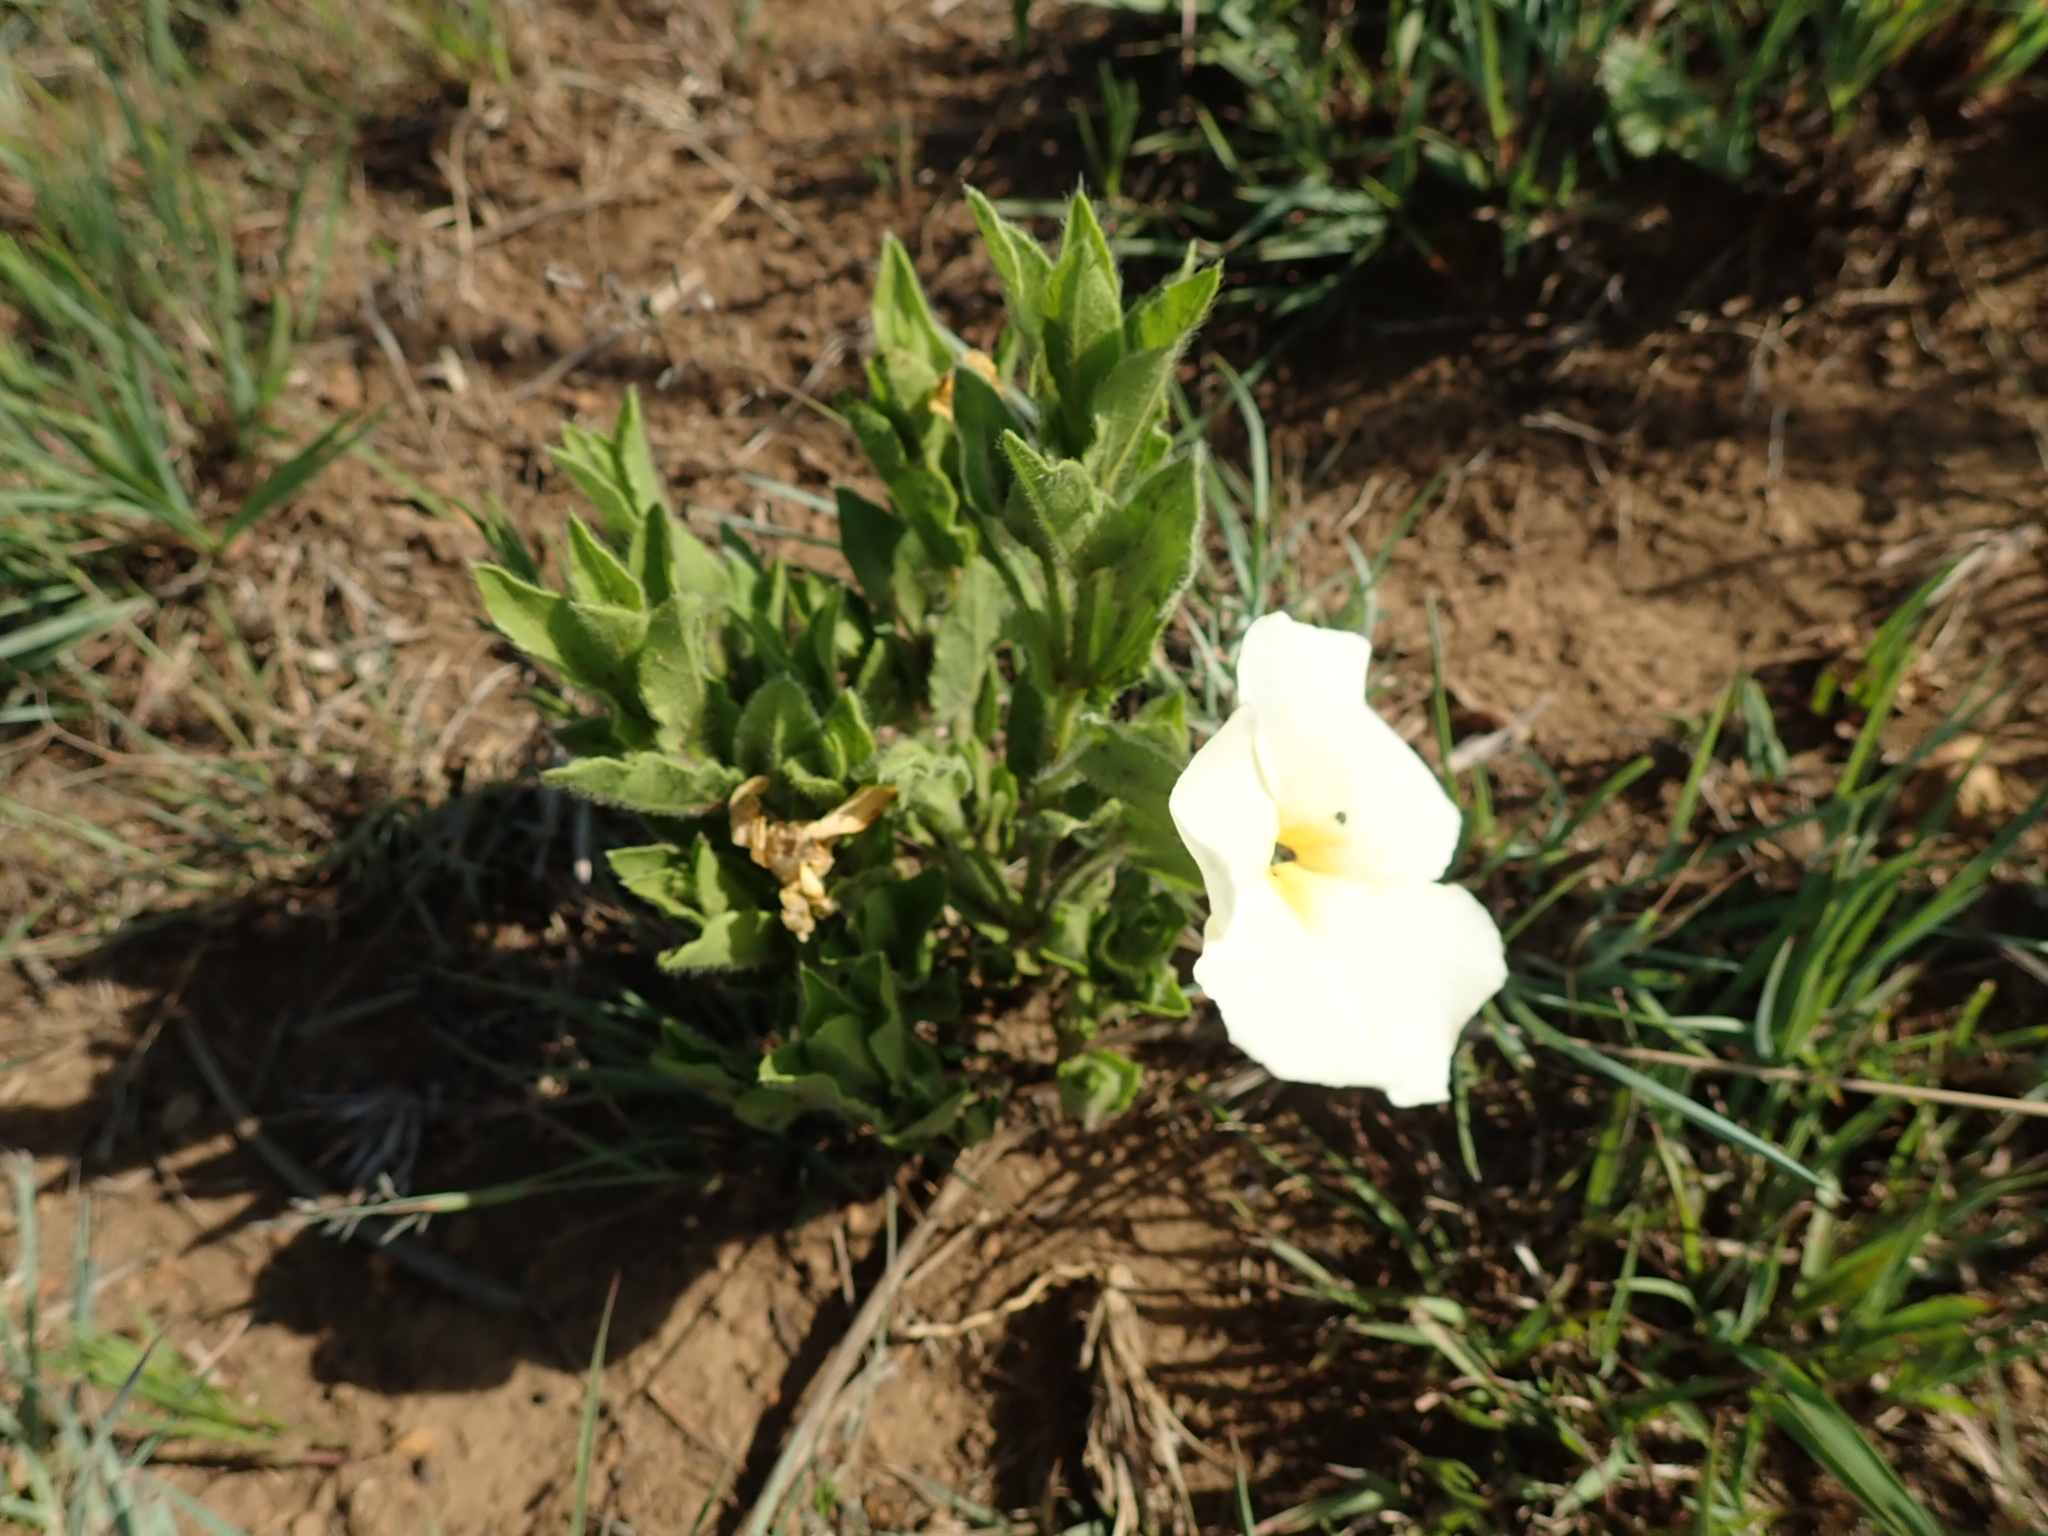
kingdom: Plantae
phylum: Tracheophyta
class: Magnoliopsida
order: Lamiales
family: Acanthaceae
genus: Thunbergia
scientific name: Thunbergia atriplicifolia
